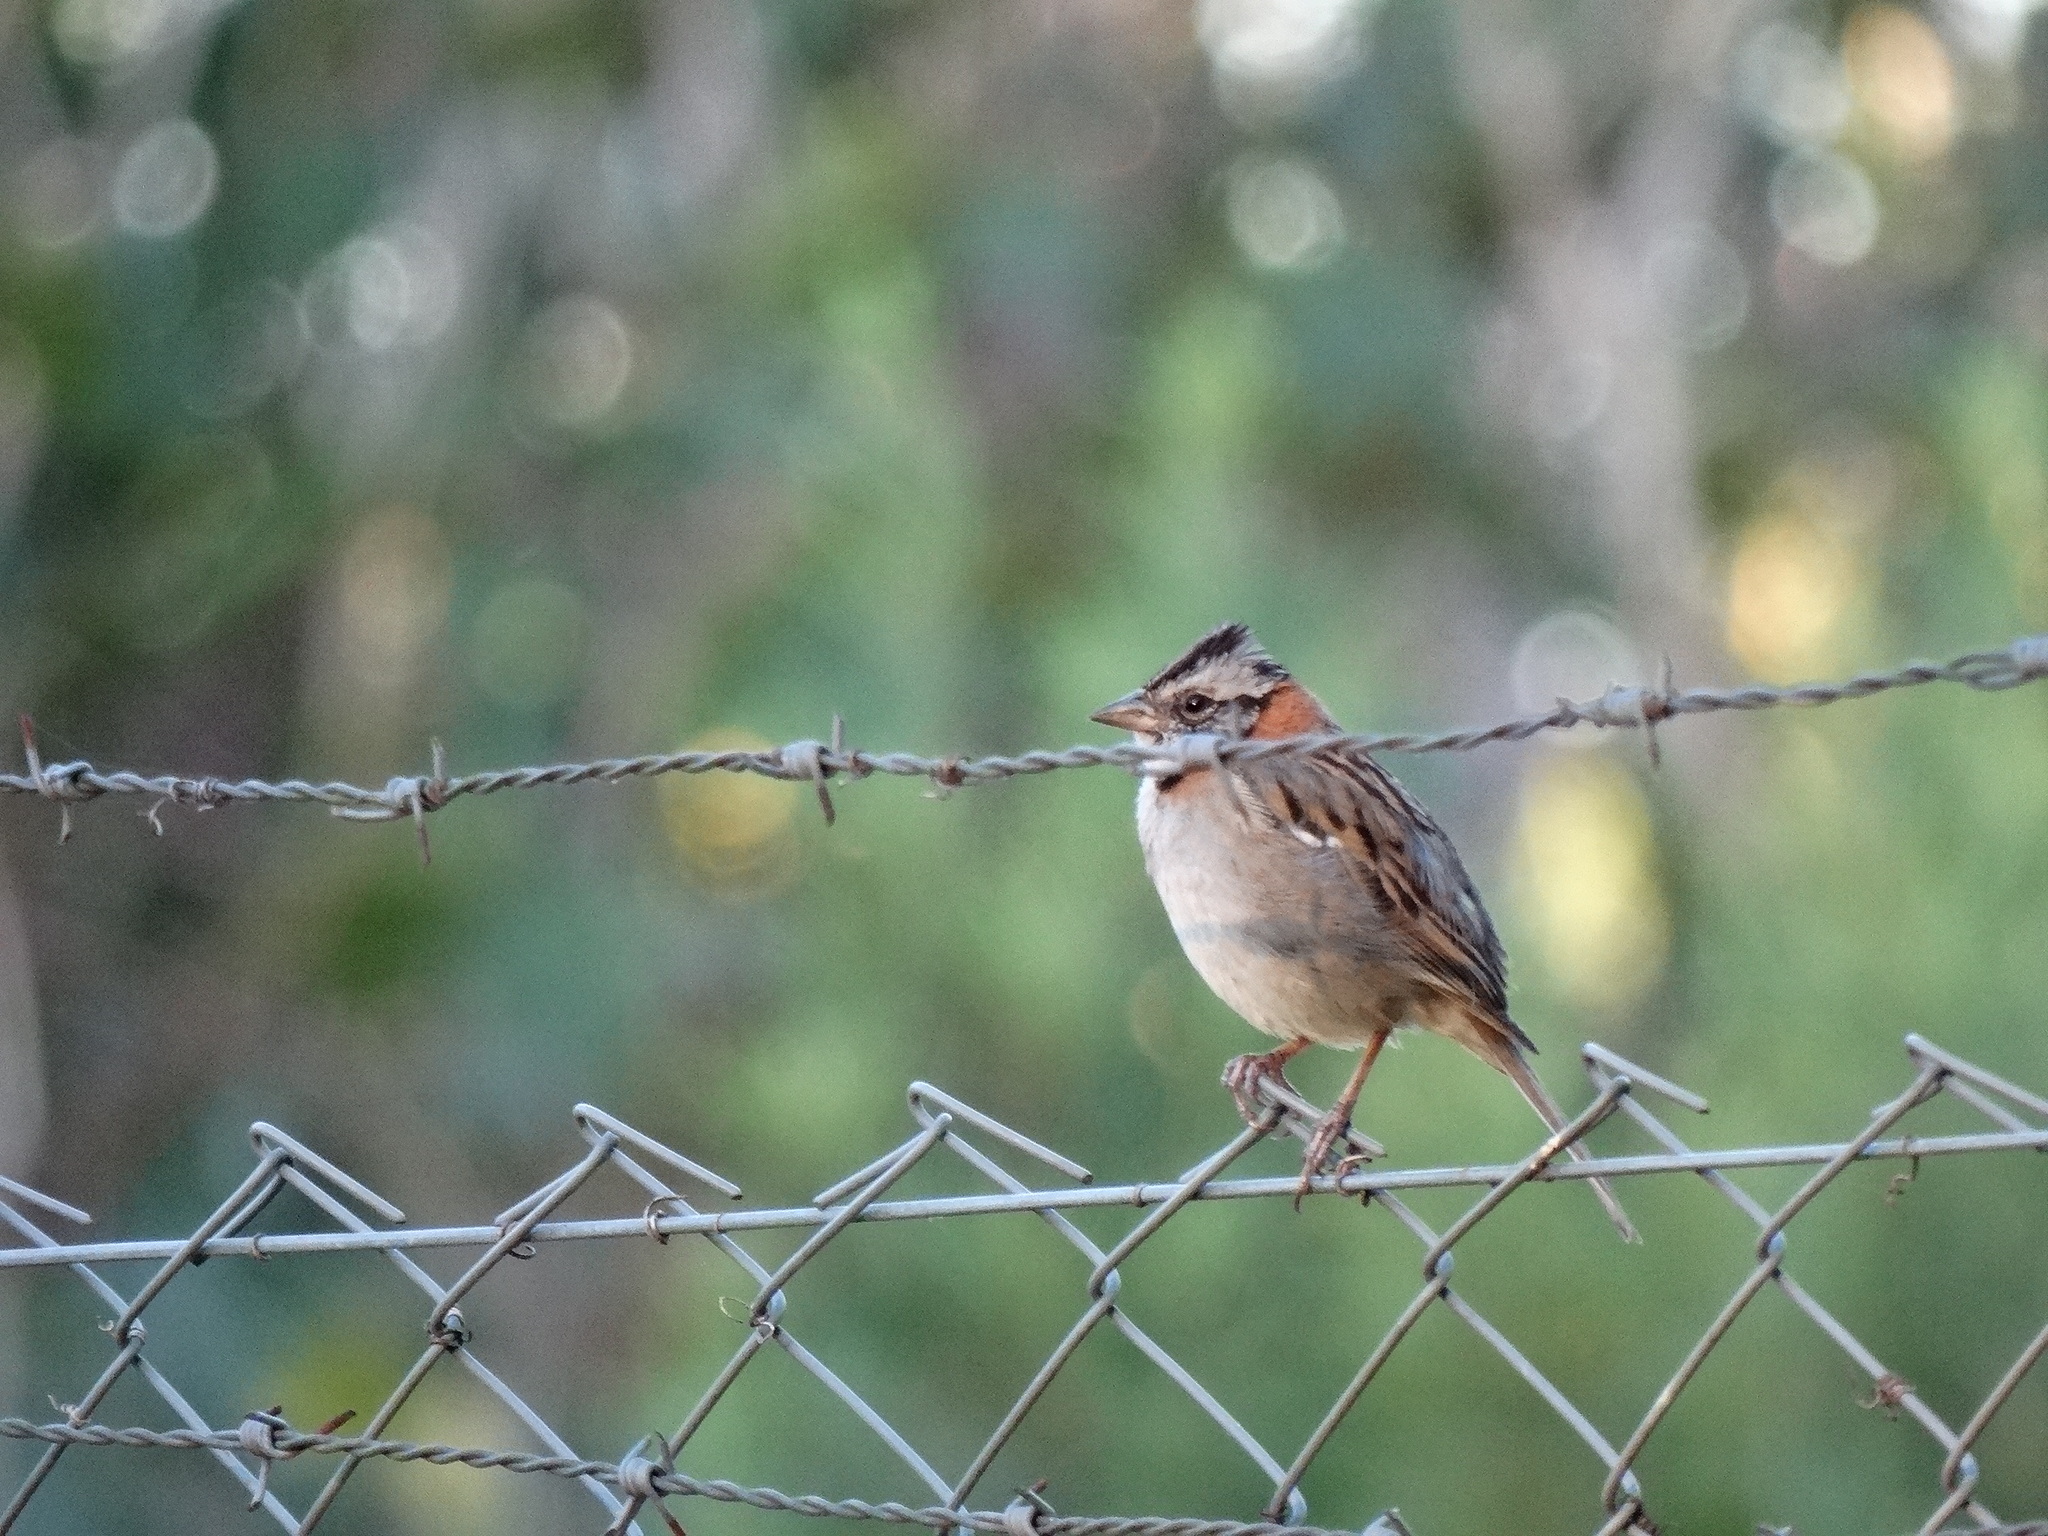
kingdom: Animalia
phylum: Chordata
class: Aves
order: Passeriformes
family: Passerellidae
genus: Zonotrichia
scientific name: Zonotrichia capensis
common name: Rufous-collared sparrow
